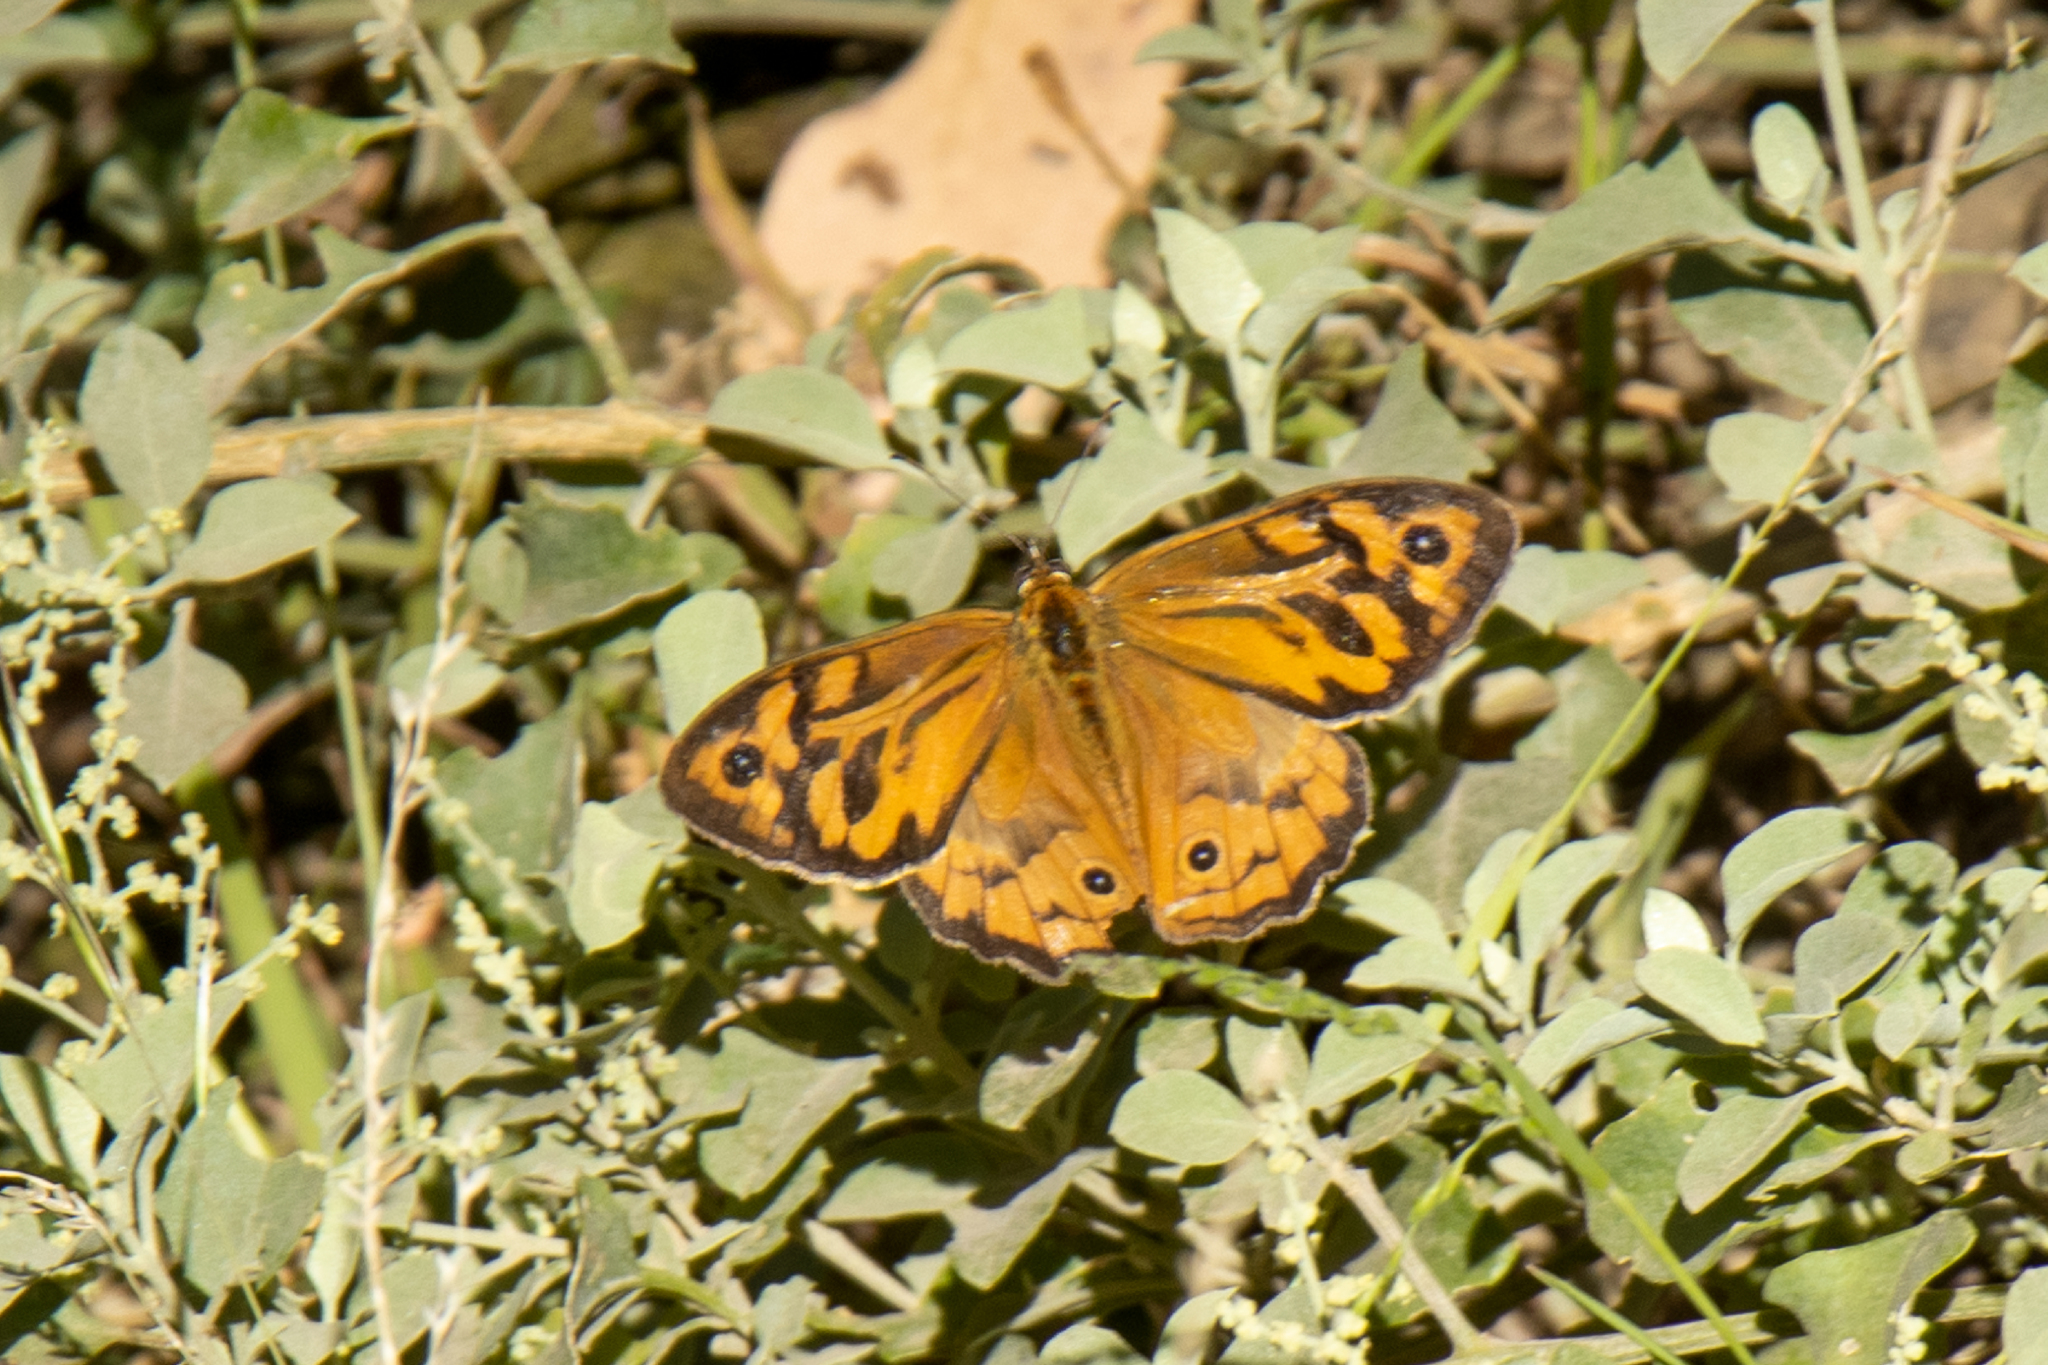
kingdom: Animalia
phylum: Arthropoda
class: Insecta
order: Lepidoptera
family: Nymphalidae
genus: Heteronympha
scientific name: Heteronympha merope
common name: Common brown
